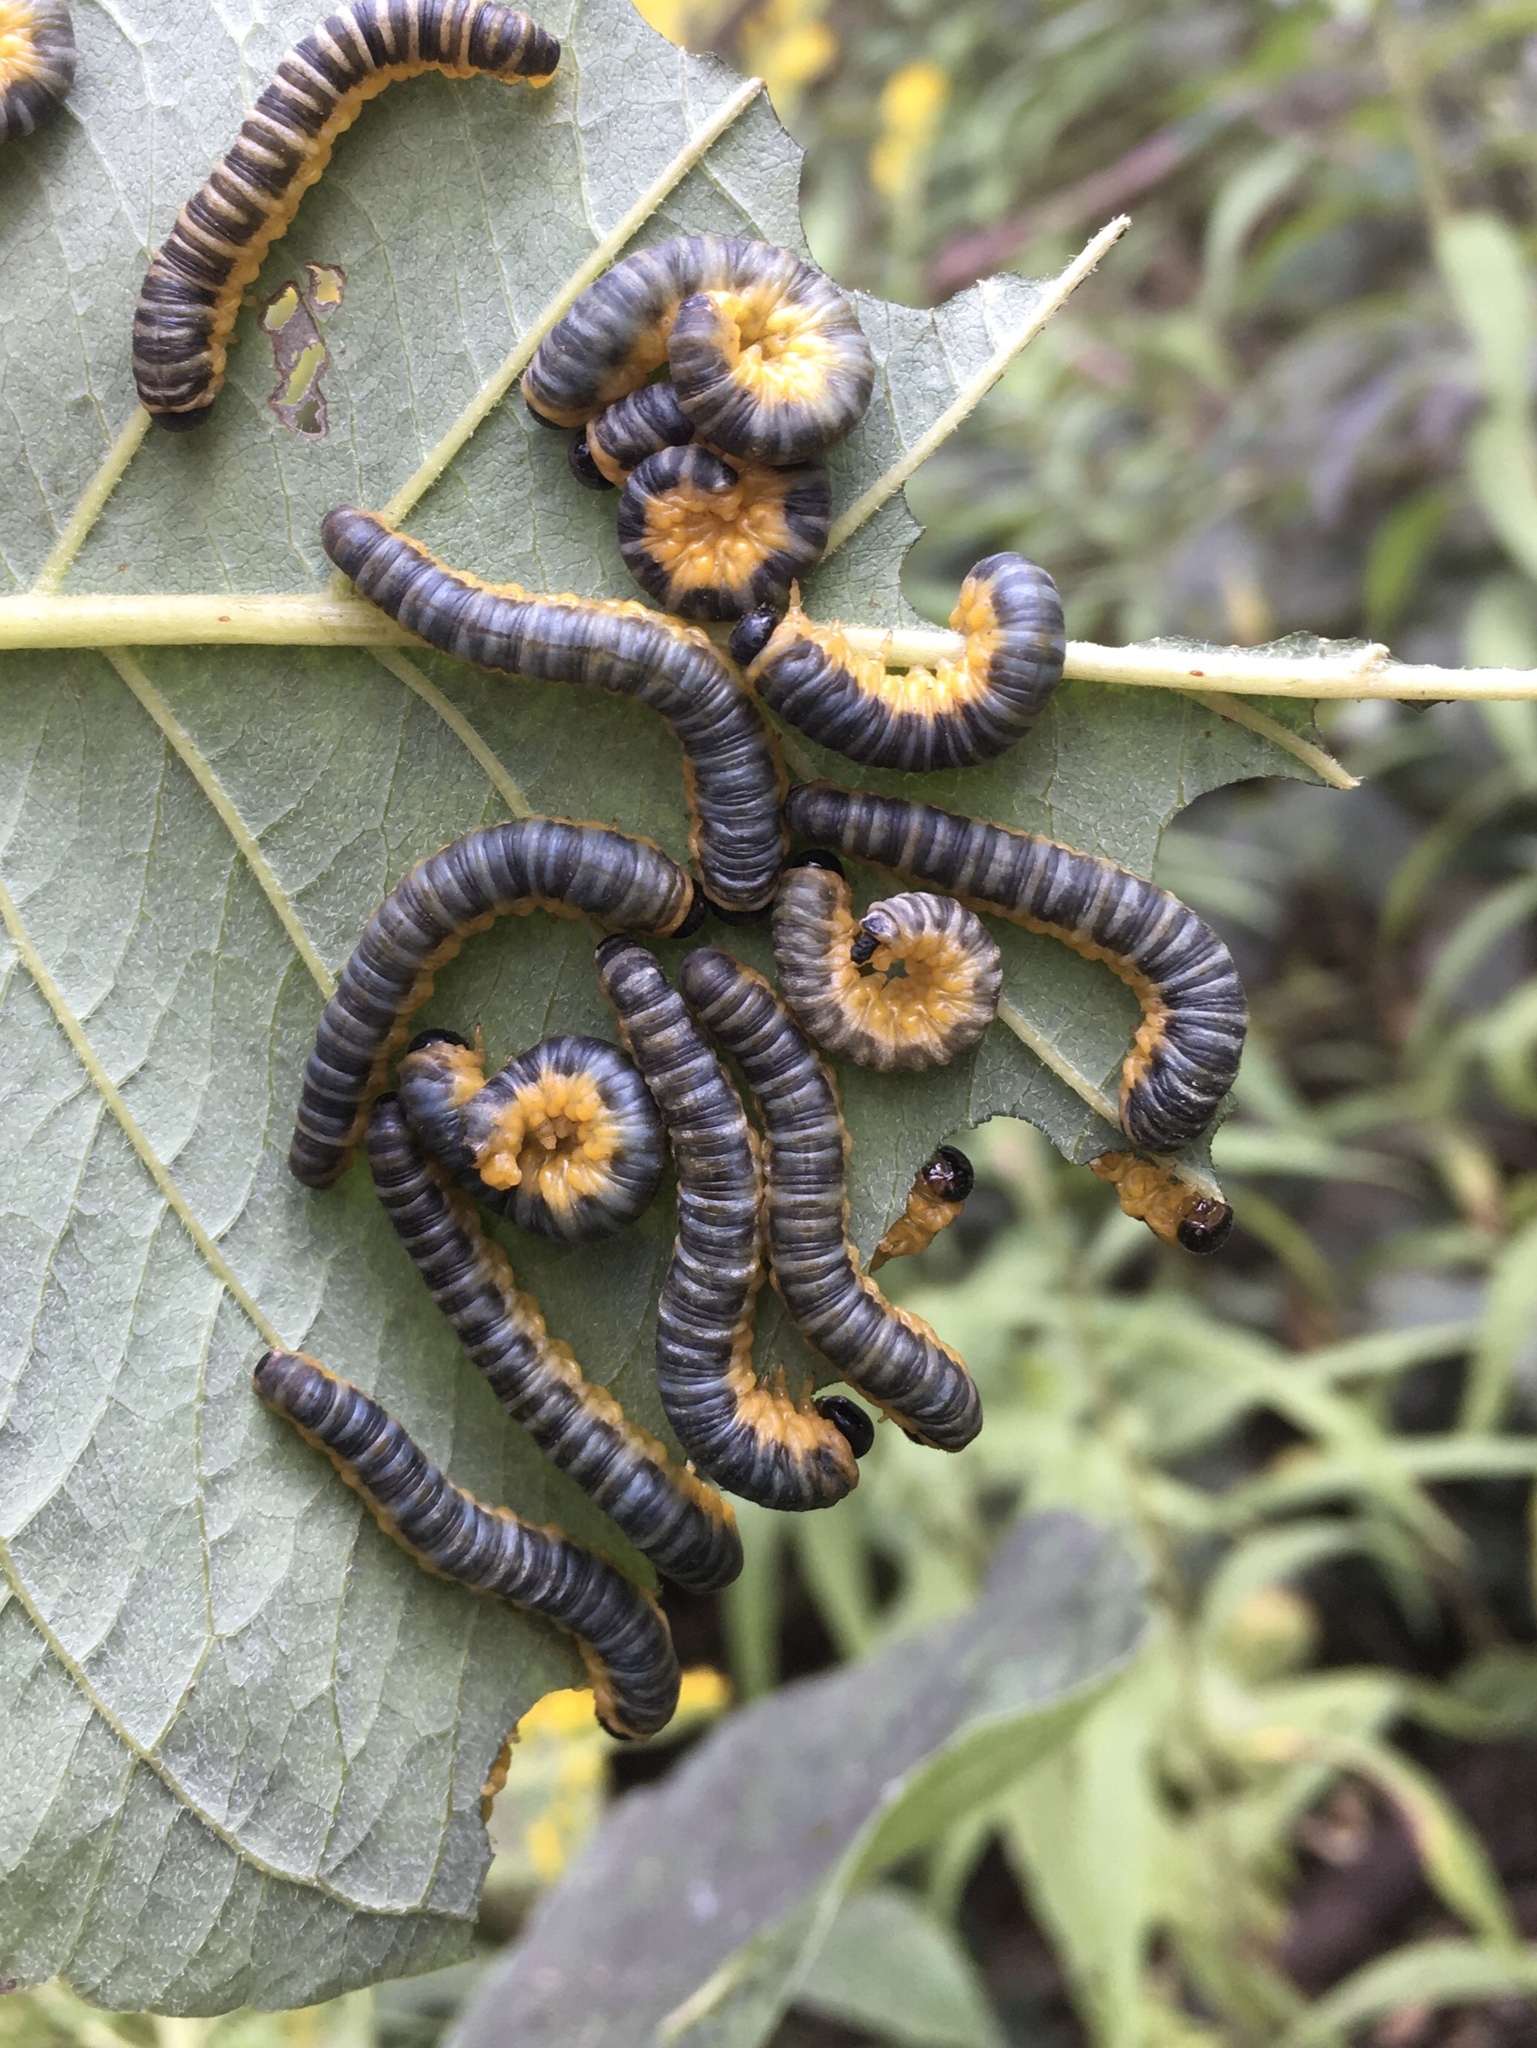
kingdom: Animalia
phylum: Arthropoda
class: Insecta
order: Hymenoptera
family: Tenthredinidae
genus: Macremphytus
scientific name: Macremphytus
